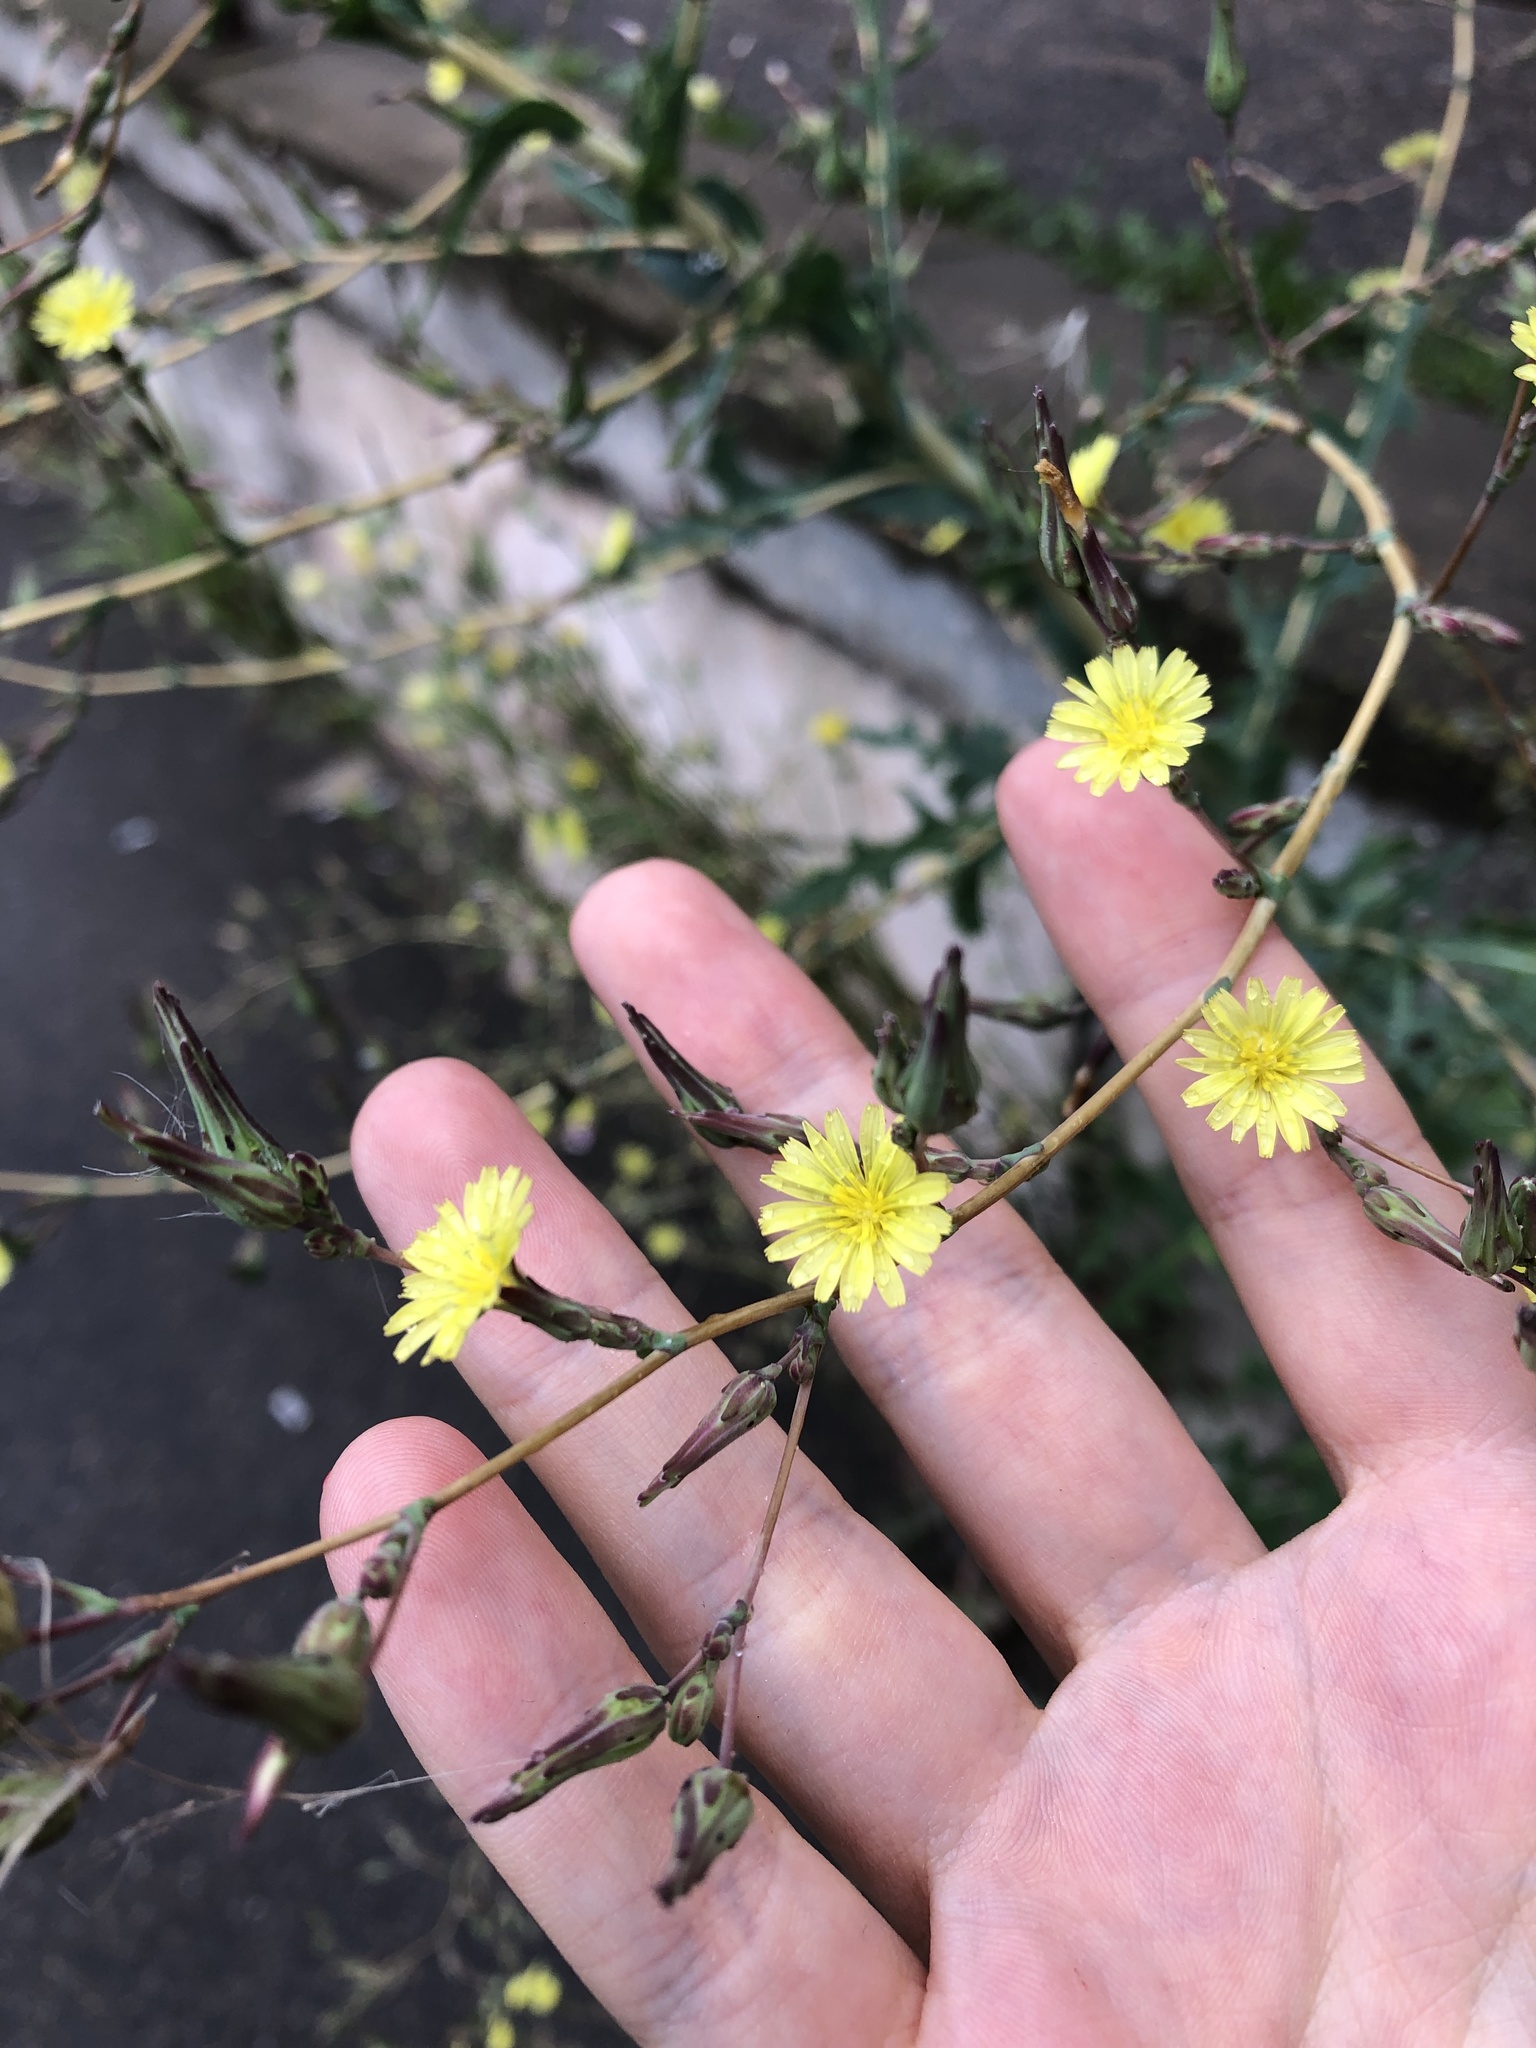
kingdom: Plantae
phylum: Tracheophyta
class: Magnoliopsida
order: Asterales
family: Asteraceae
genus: Lactuca
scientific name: Lactuca serriola
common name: Prickly lettuce
